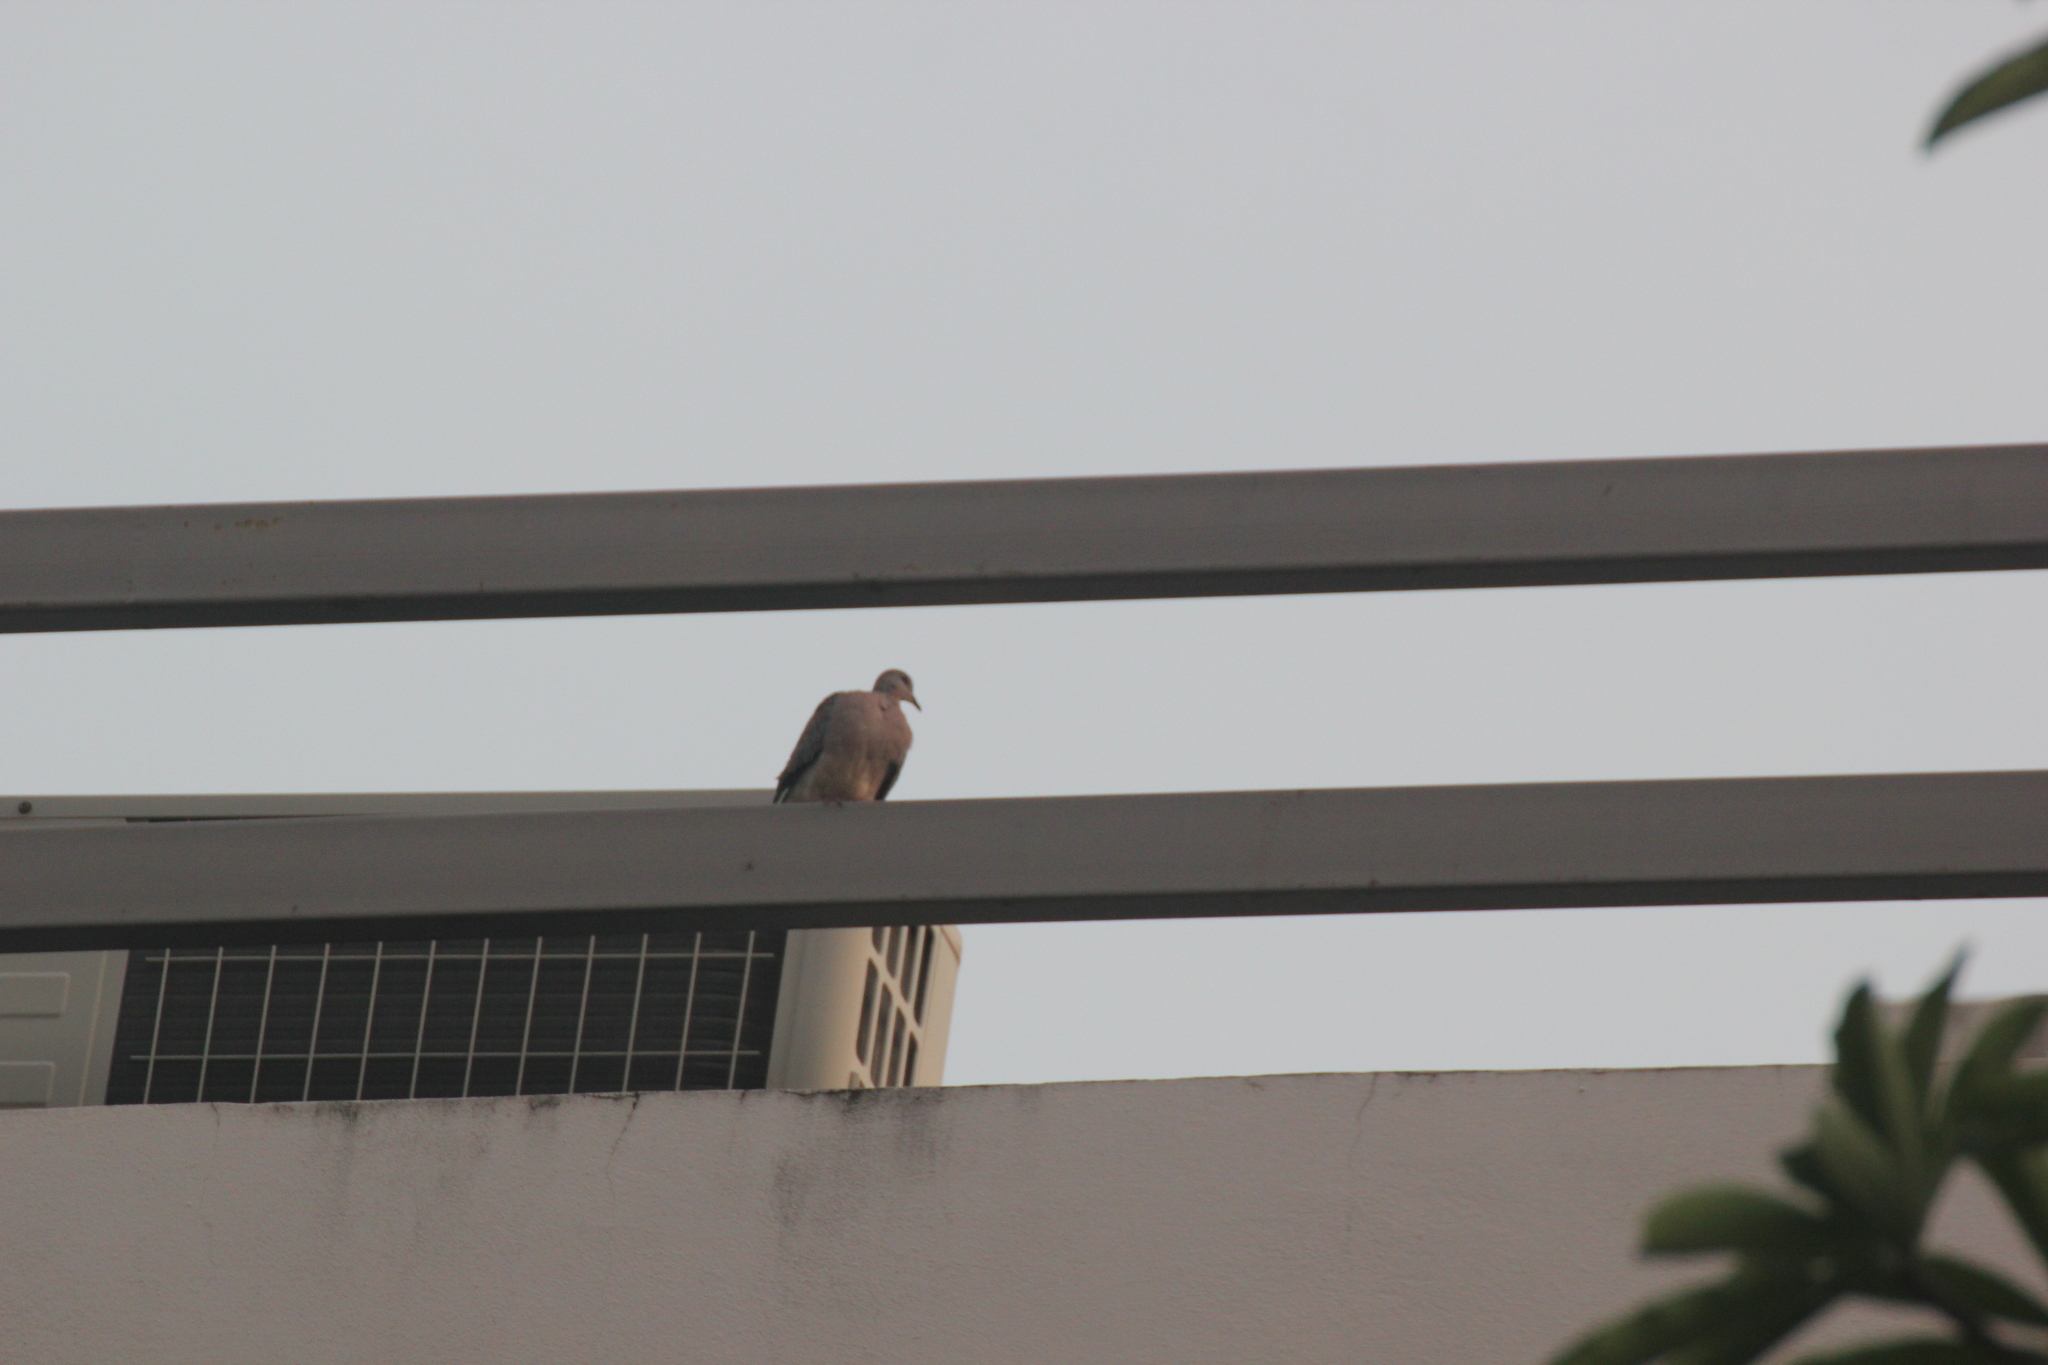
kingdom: Animalia
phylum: Chordata
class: Aves
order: Columbiformes
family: Columbidae
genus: Spilopelia
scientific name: Spilopelia chinensis
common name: Spotted dove
